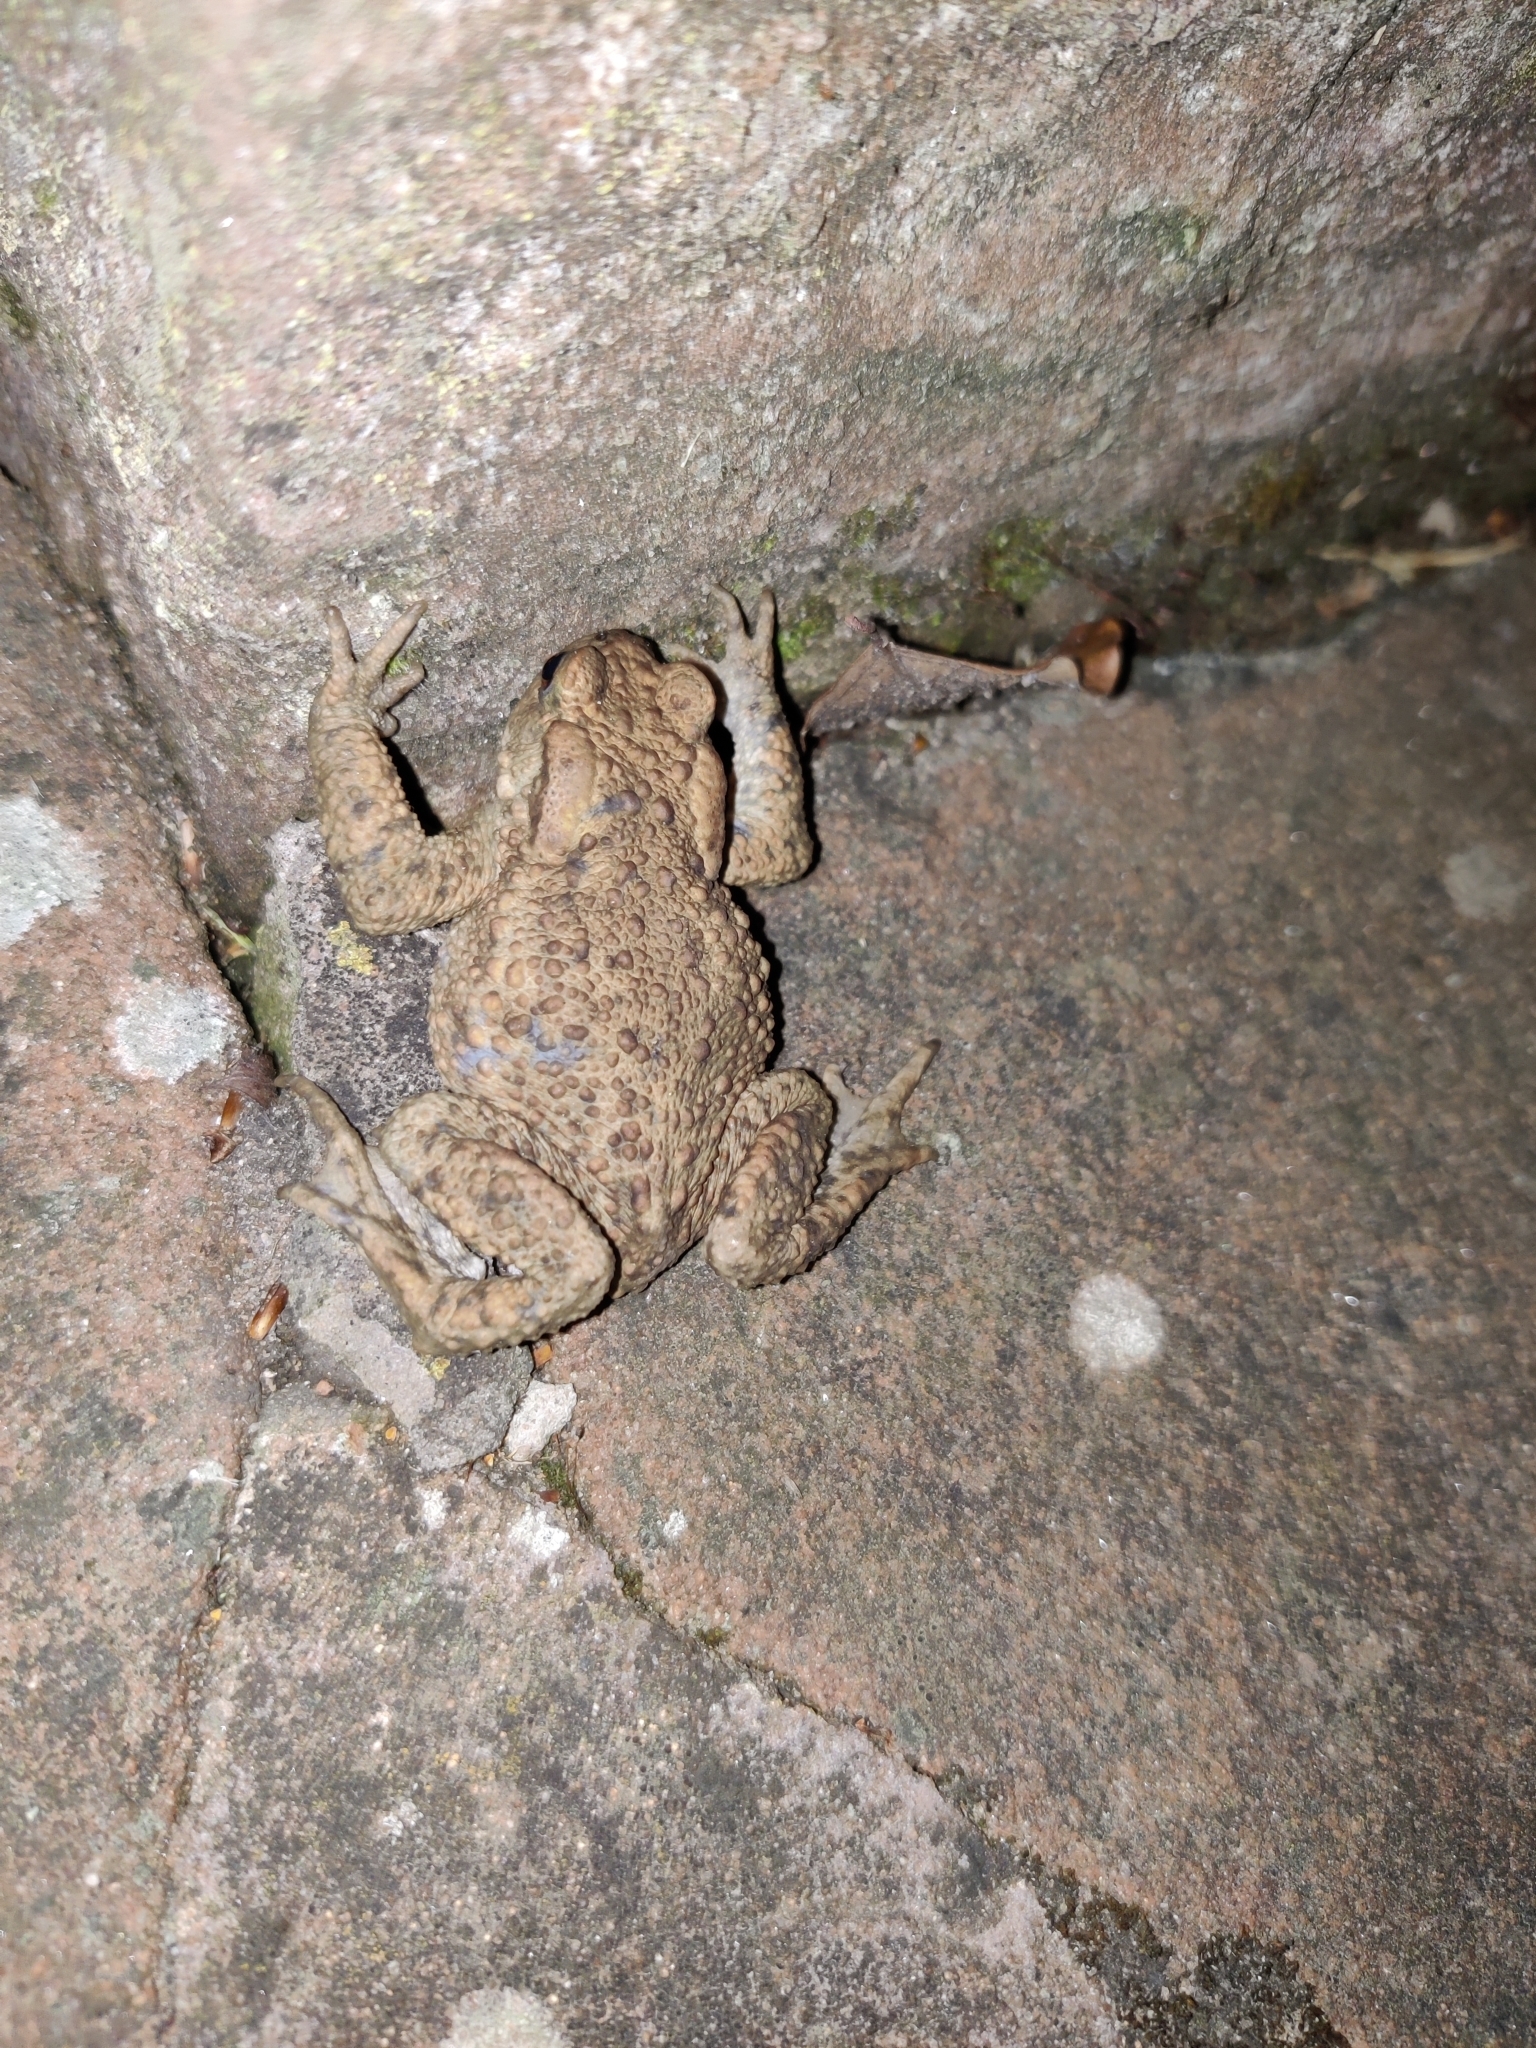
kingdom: Animalia
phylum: Chordata
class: Amphibia
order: Anura
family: Bufonidae
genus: Bufo
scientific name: Bufo bufo
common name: Common toad
